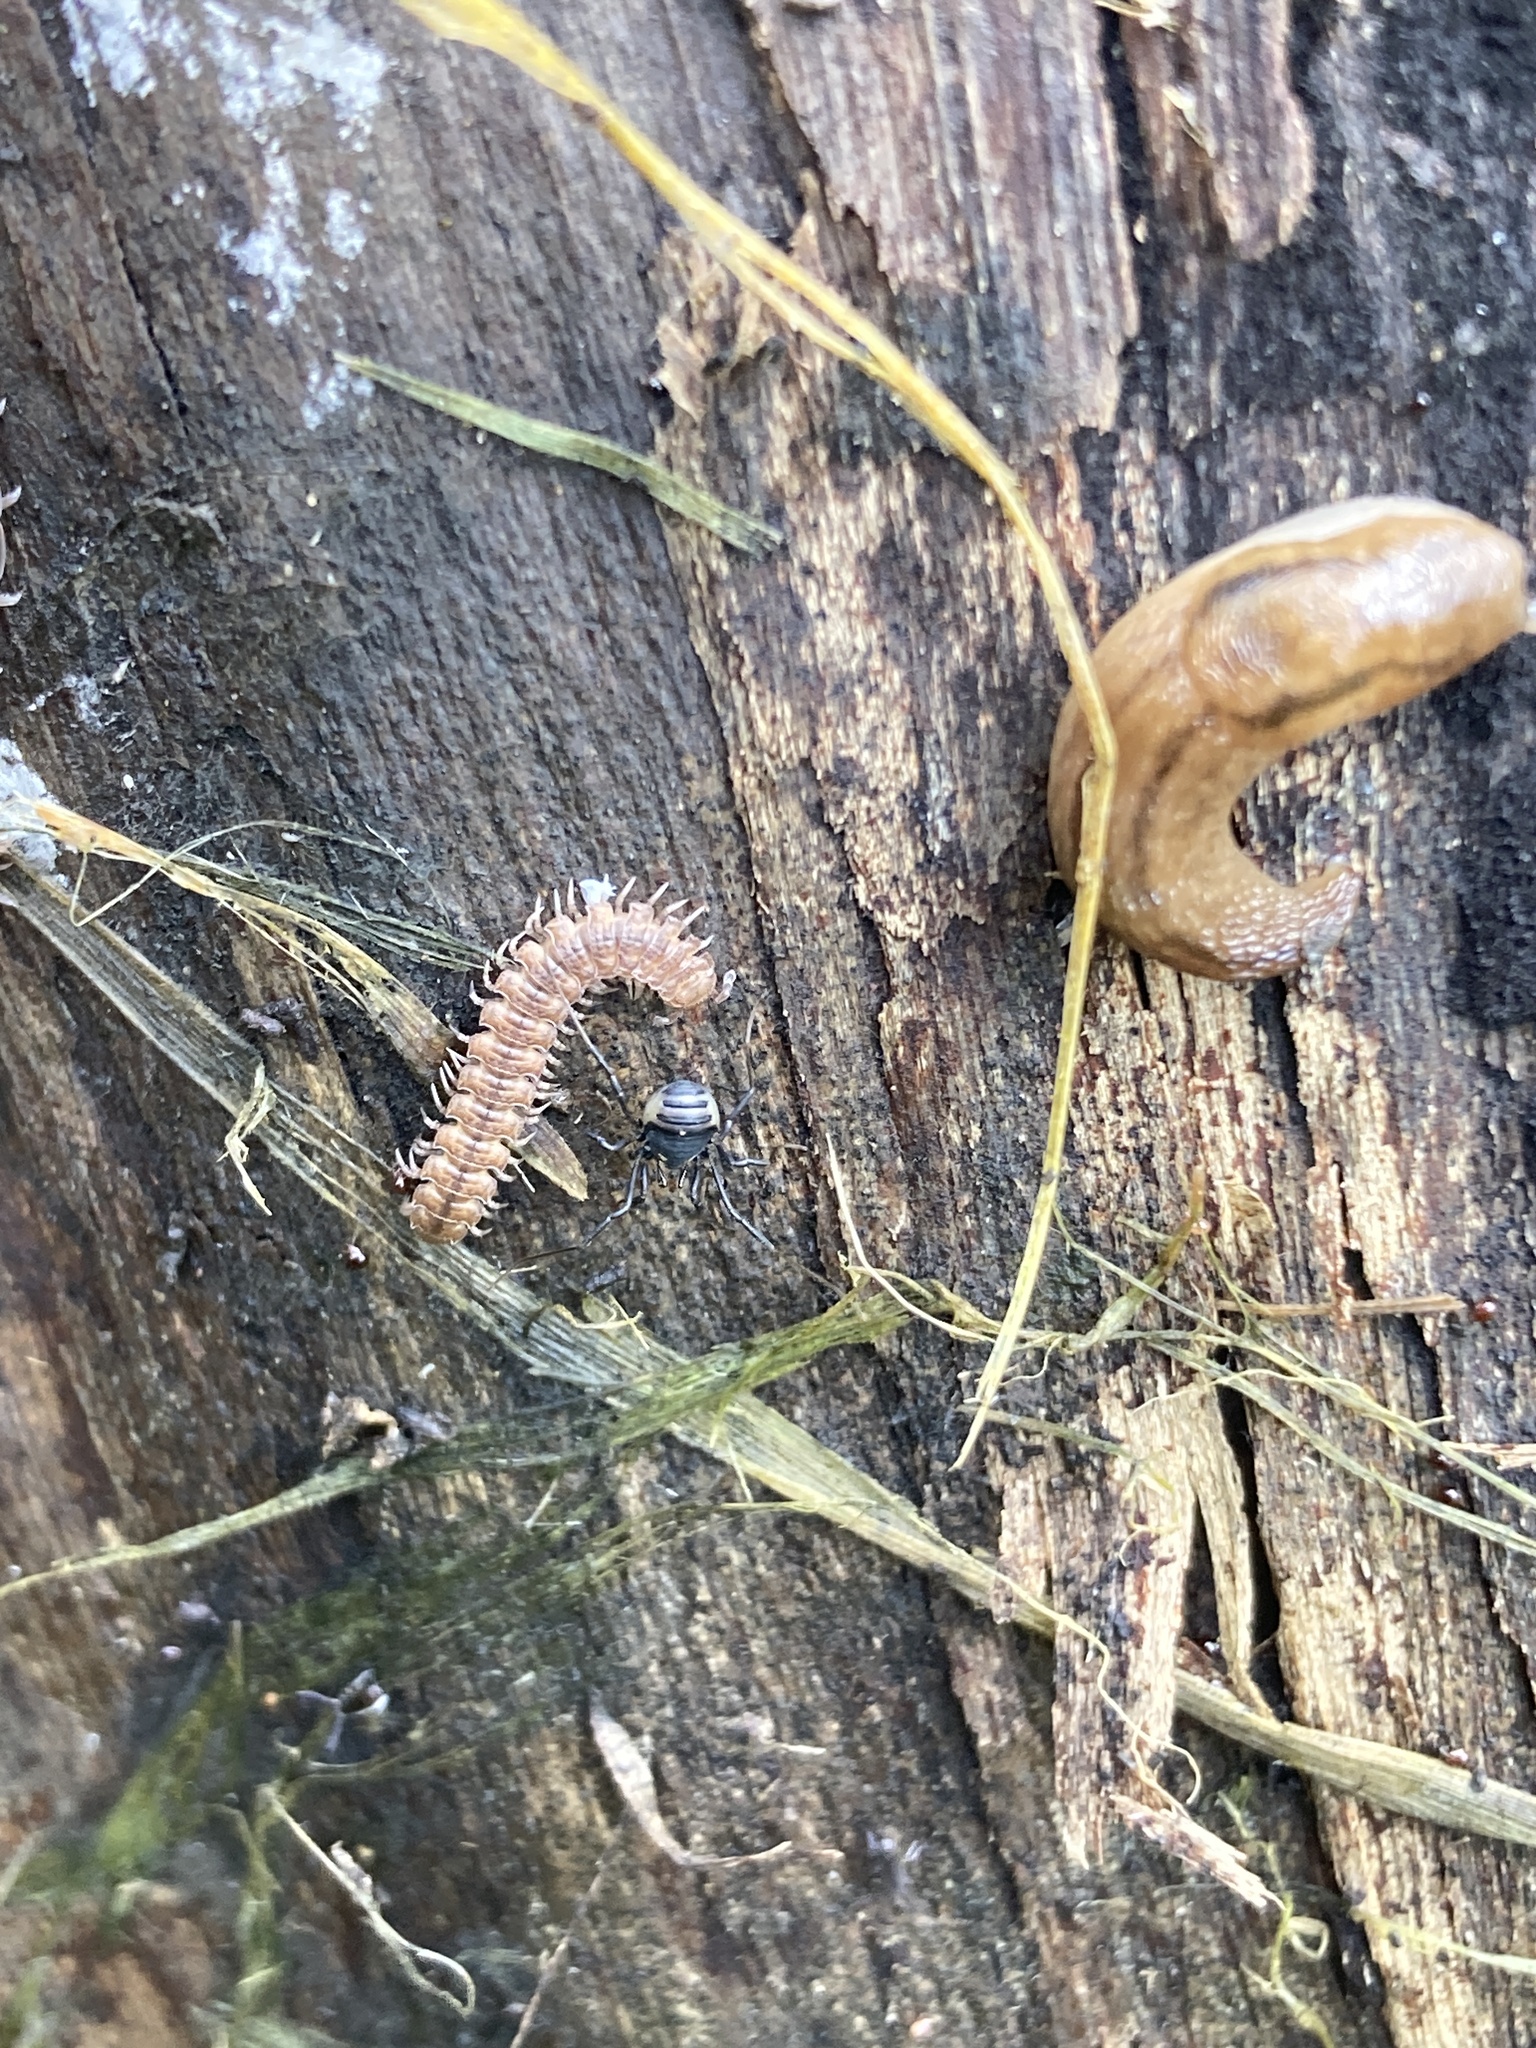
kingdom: Animalia
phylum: Arthropoda
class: Arachnida
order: Opiliones
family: Nemastomatidae
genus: Nemastoma
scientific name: Nemastoma bimaculatum
